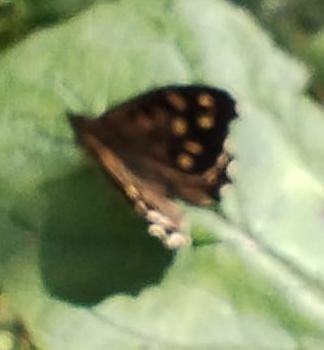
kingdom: Animalia
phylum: Arthropoda
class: Insecta
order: Lepidoptera
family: Nymphalidae
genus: Pararge
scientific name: Pararge aegeria
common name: Speckled wood
